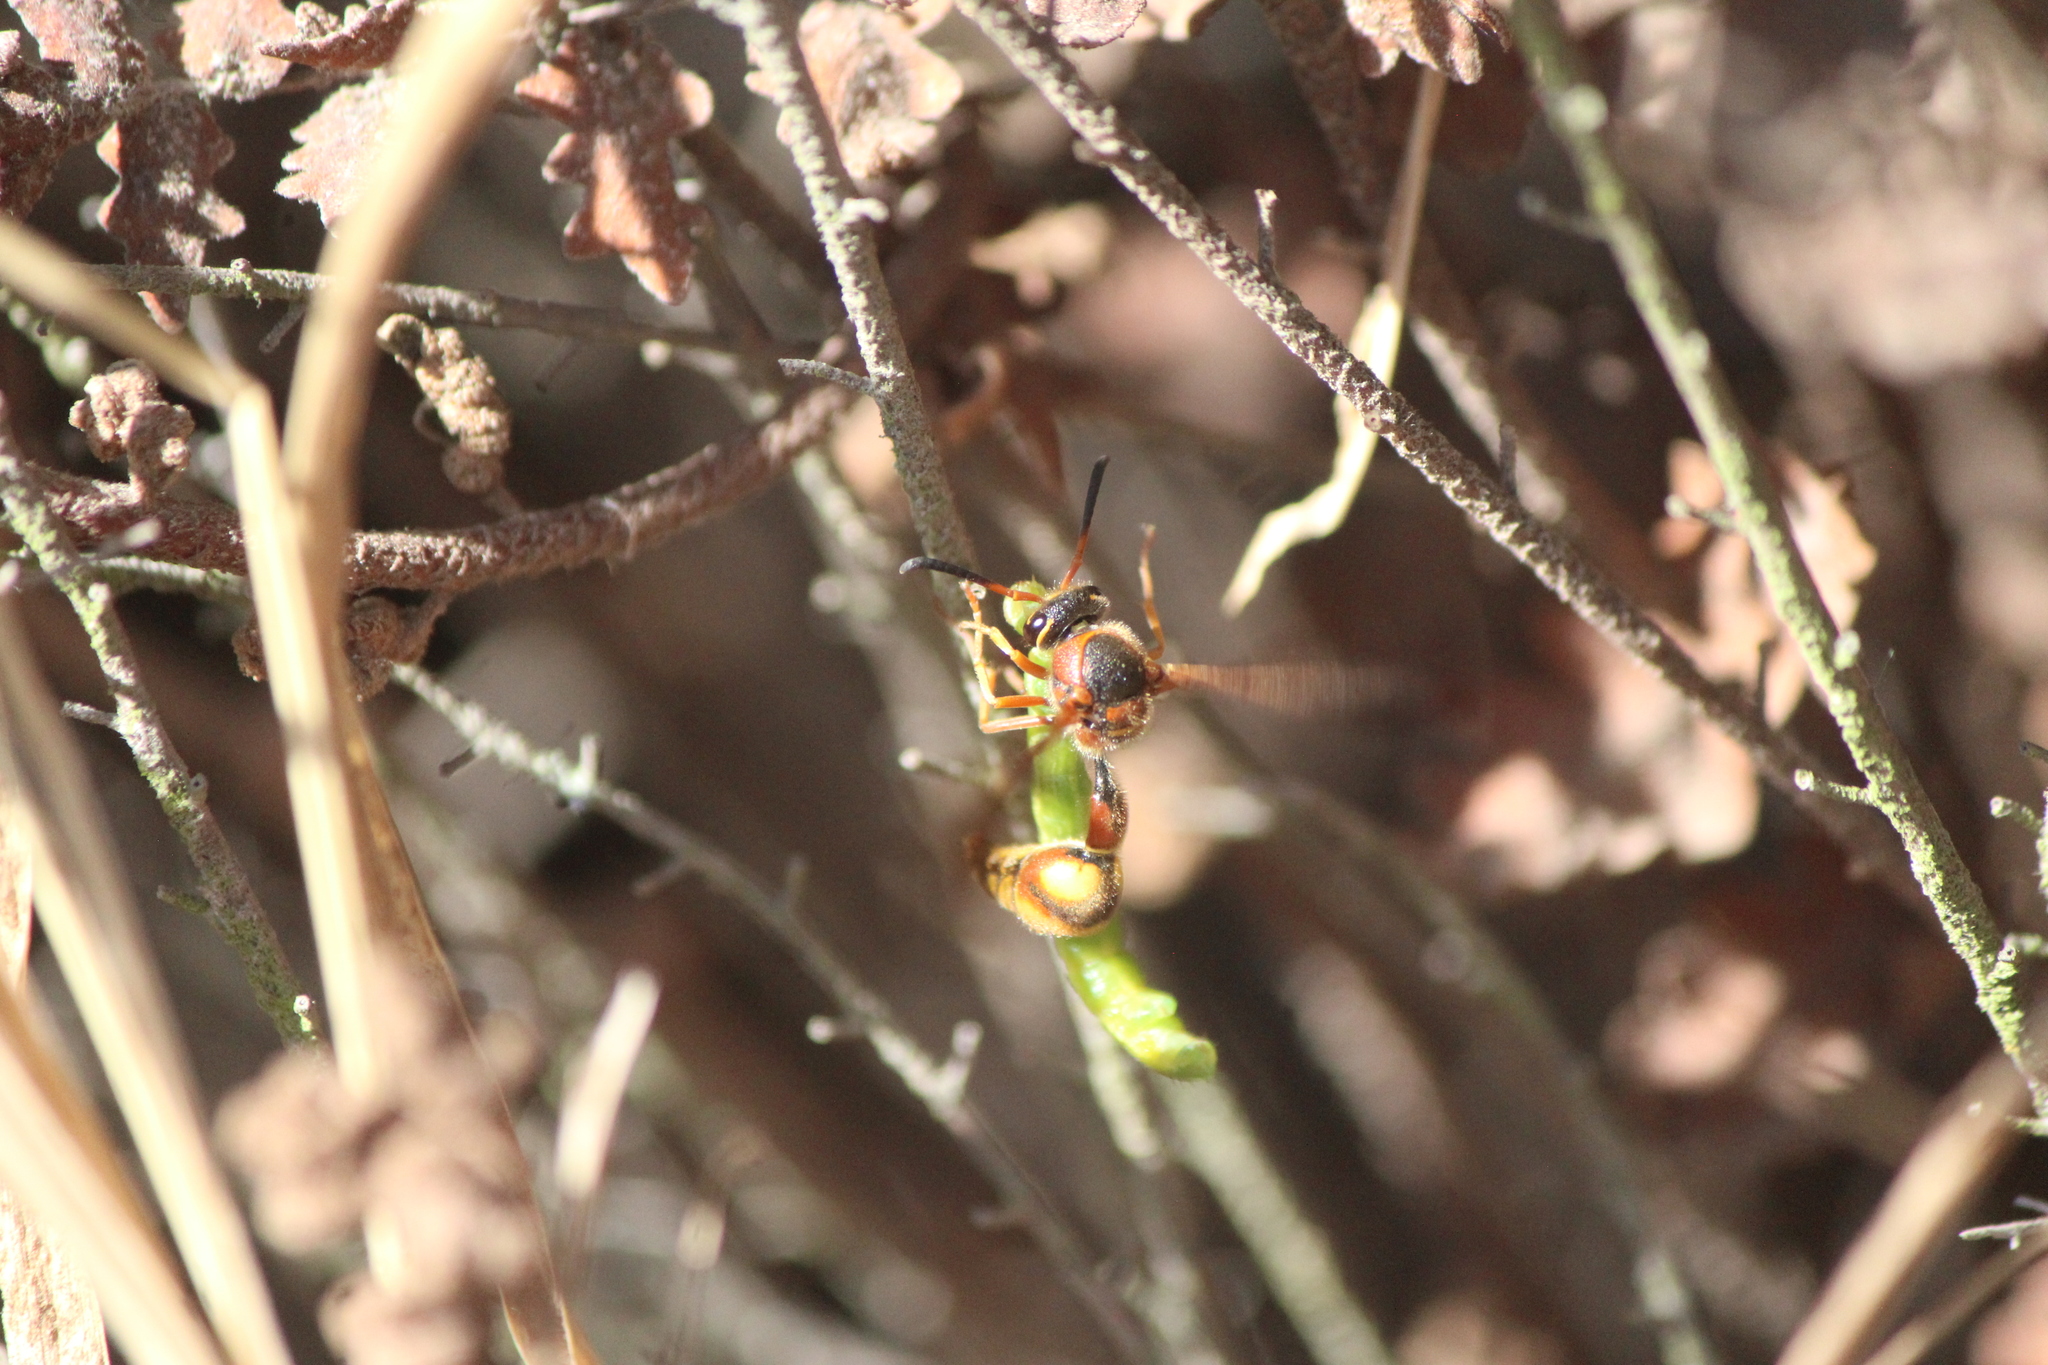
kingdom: Animalia
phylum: Arthropoda
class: Insecta
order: Hymenoptera
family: Vespidae
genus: Eumenes
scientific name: Eumenes bollii
